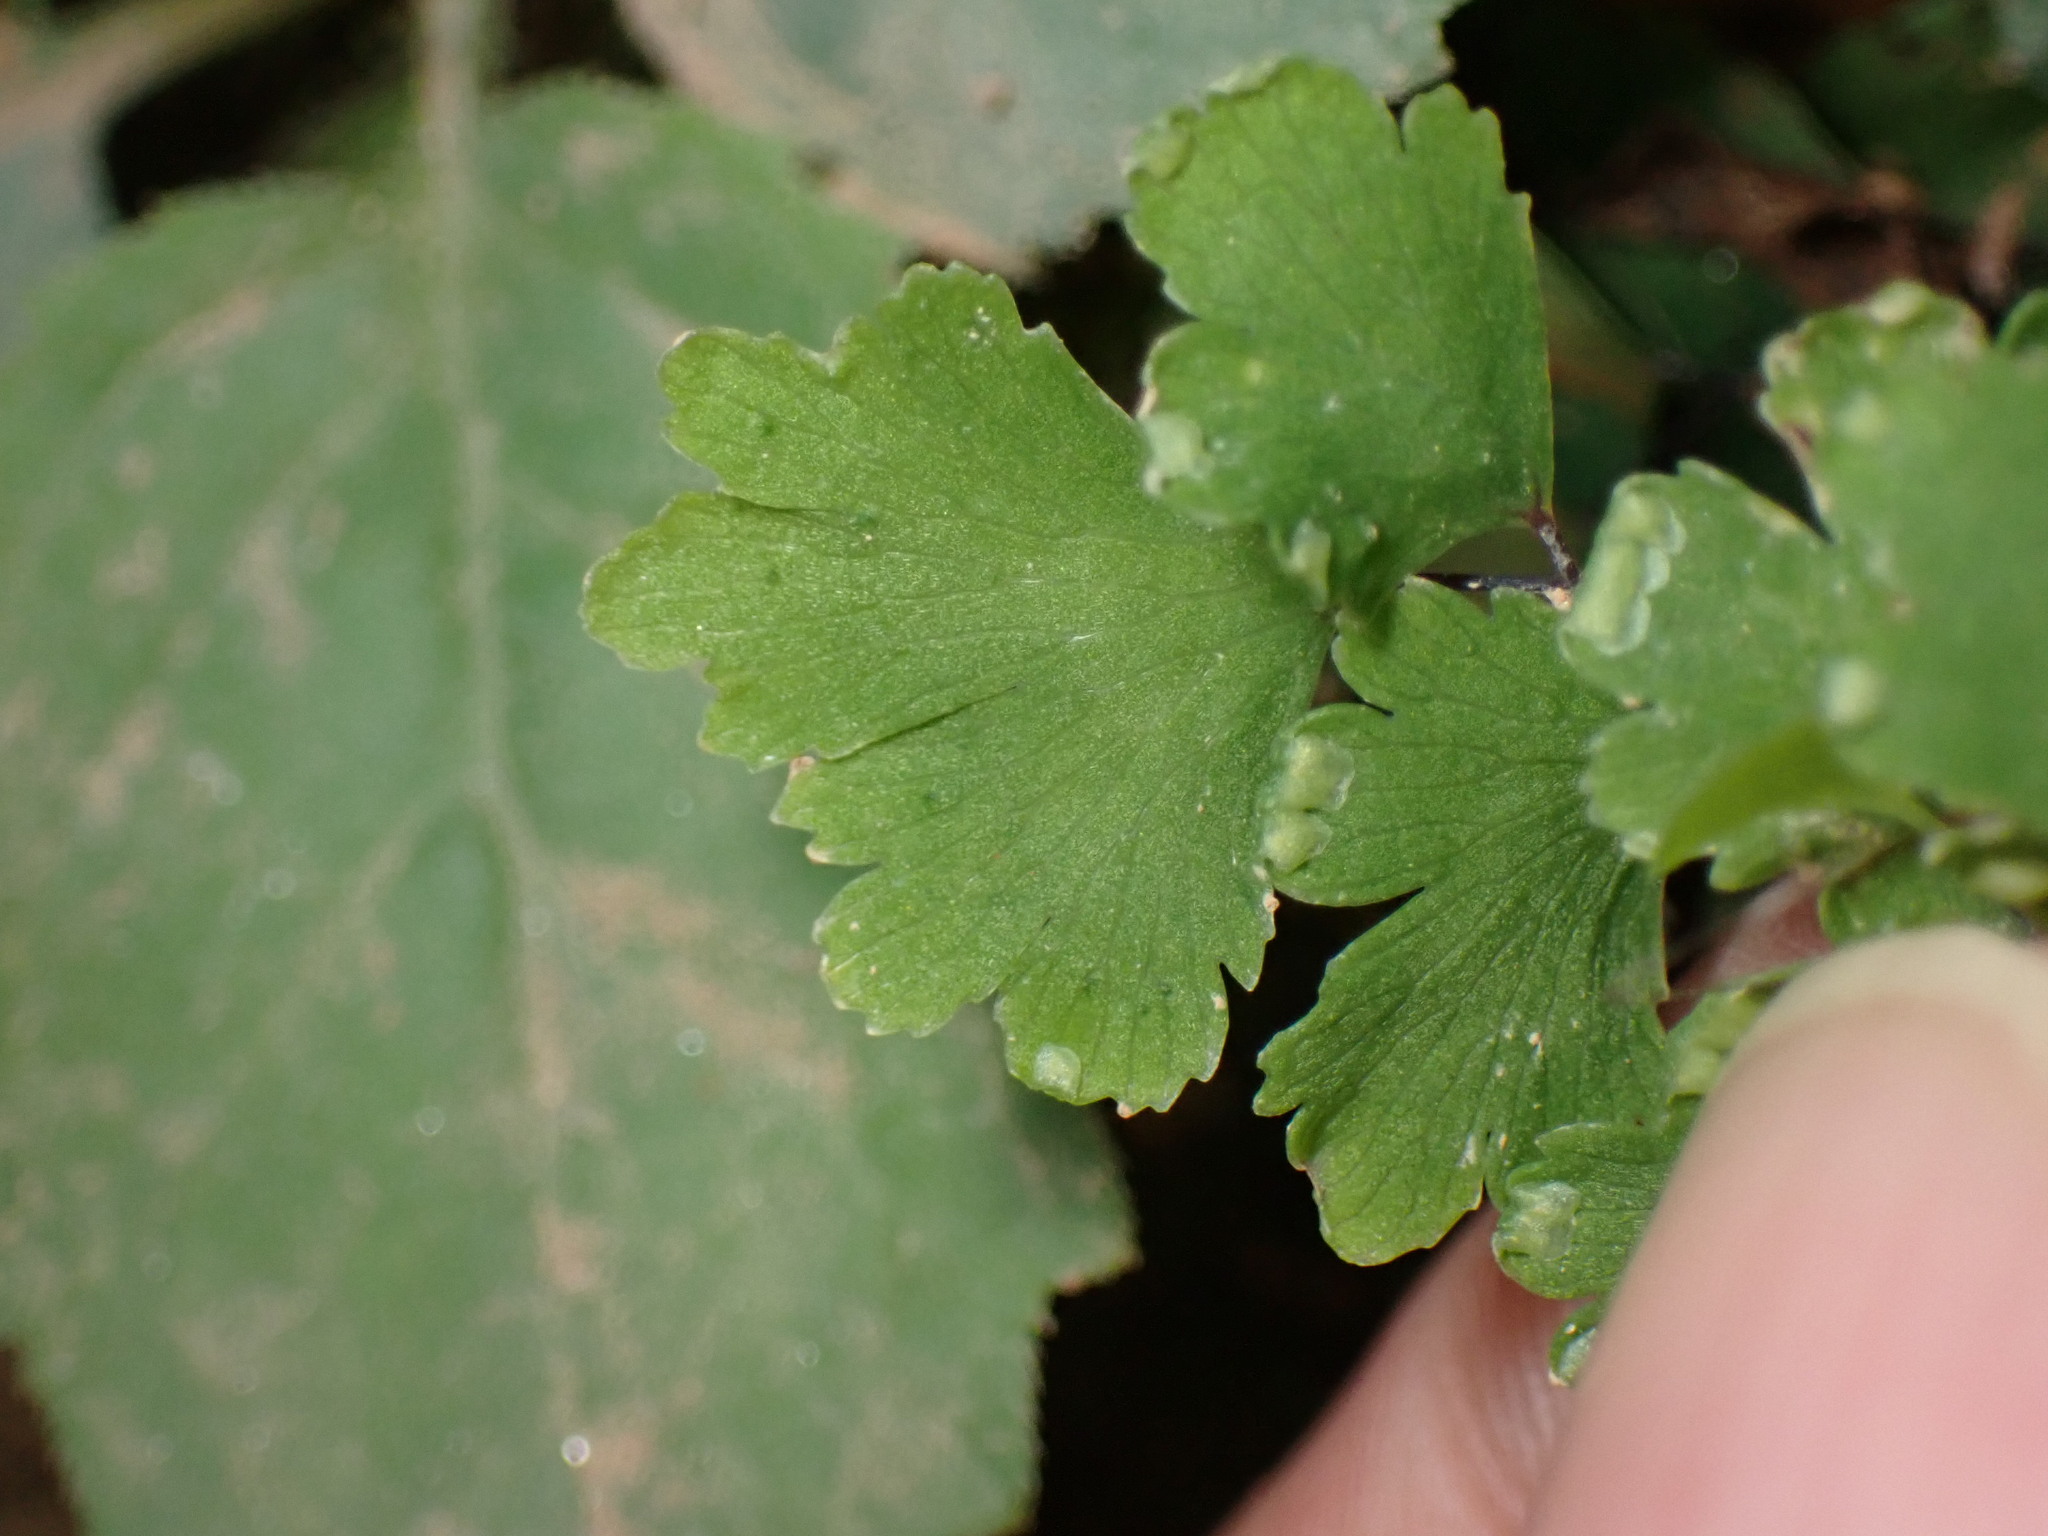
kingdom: Plantae
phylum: Tracheophyta
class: Polypodiopsida
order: Polypodiales
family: Pteridaceae
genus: Adiantum
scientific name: Adiantum capillus-veneris
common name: Maidenhair fern
